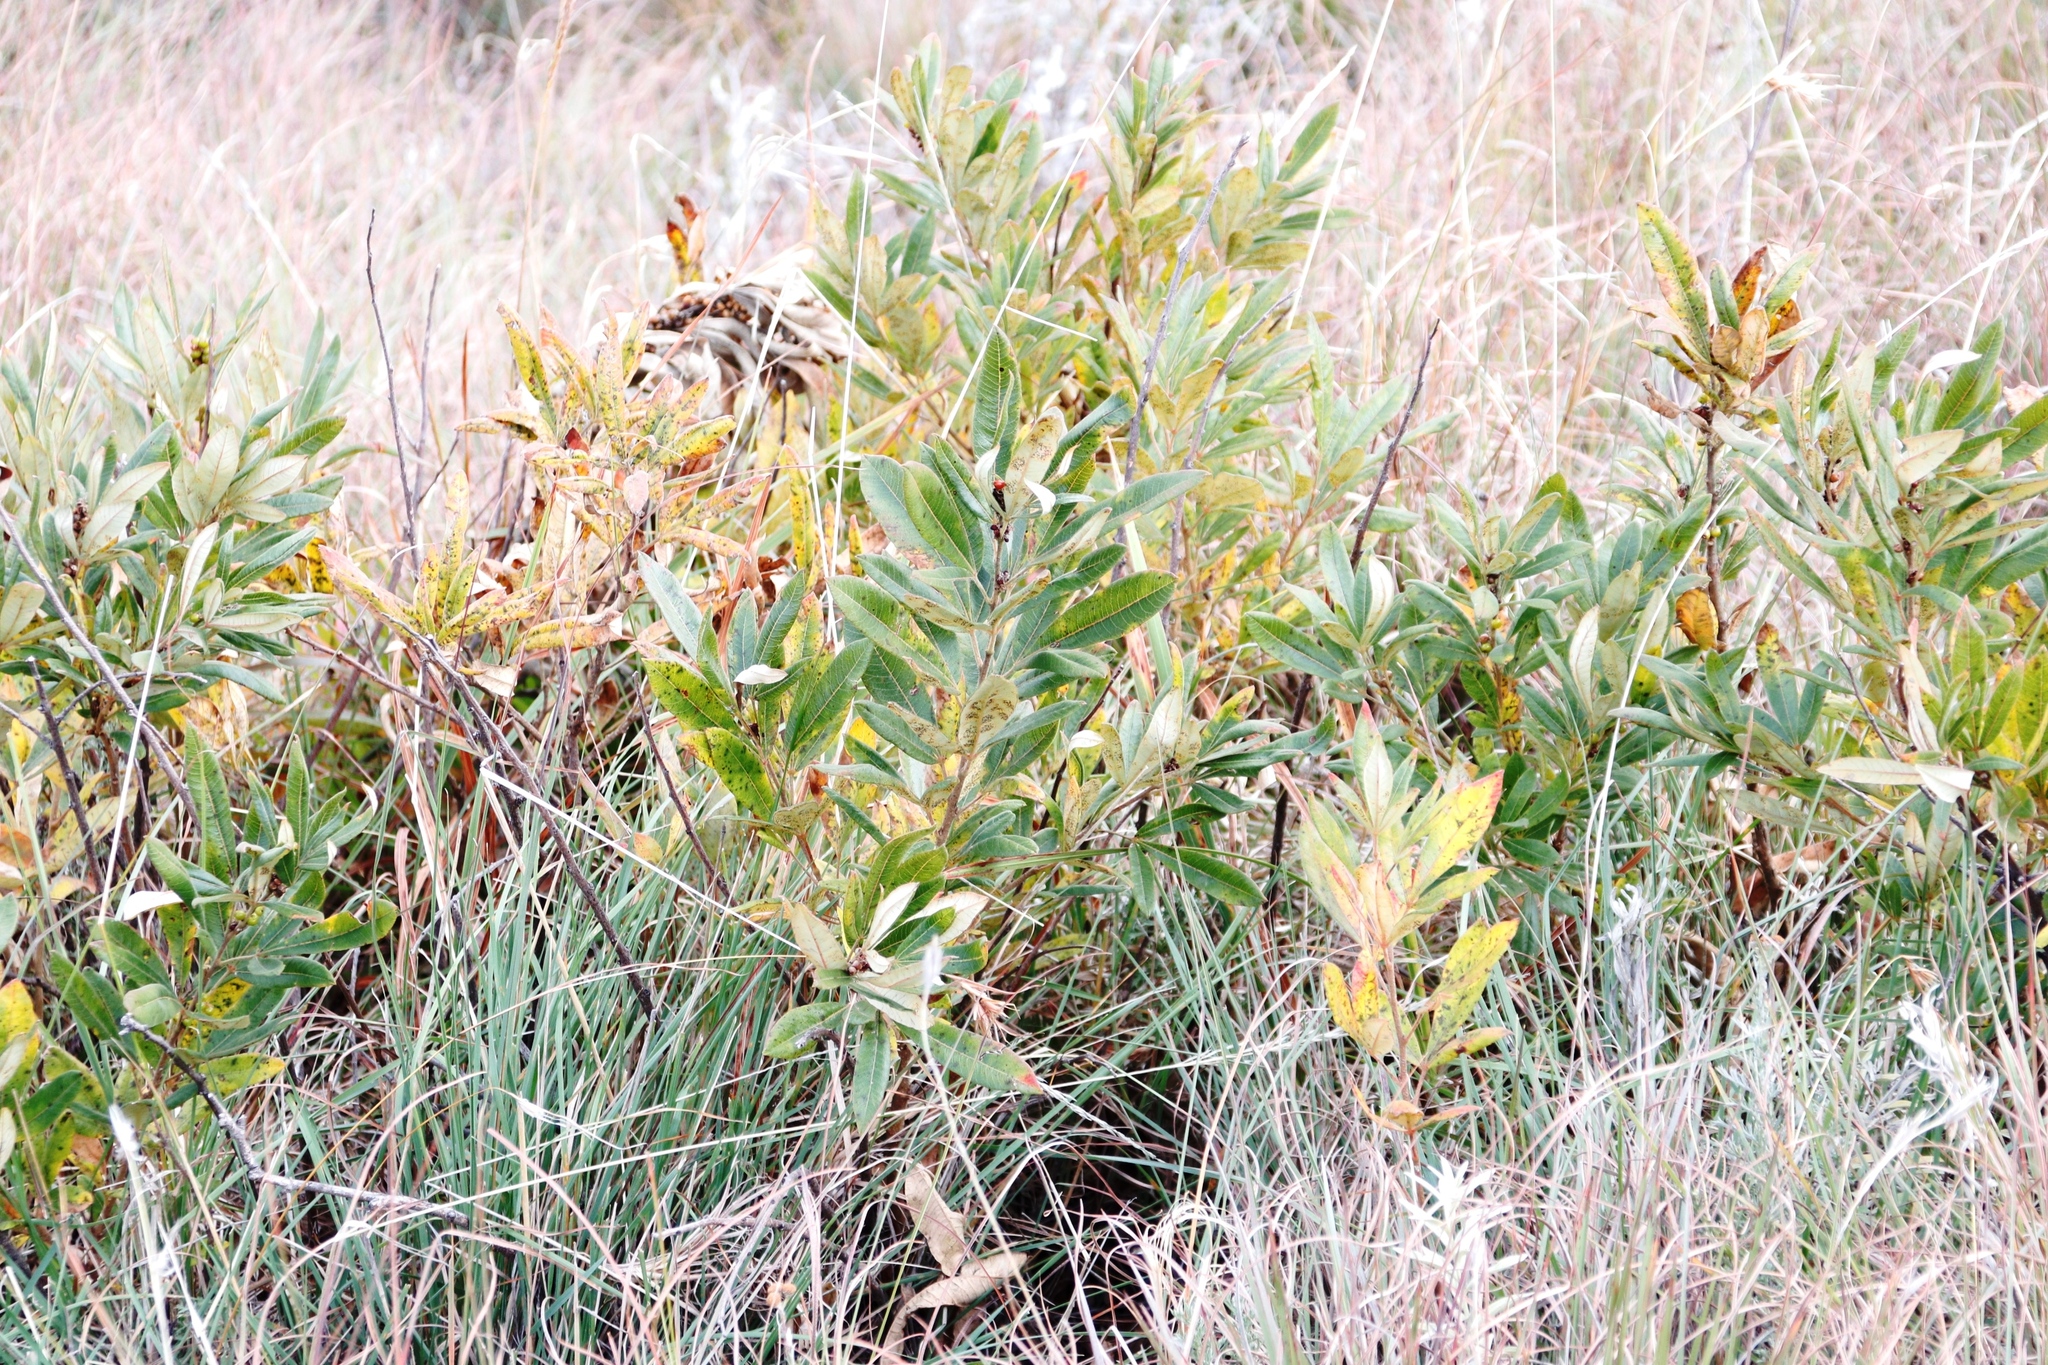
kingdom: Plantae
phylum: Tracheophyta
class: Magnoliopsida
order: Sapindales
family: Anacardiaceae
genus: Searsia
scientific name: Searsia discolor
